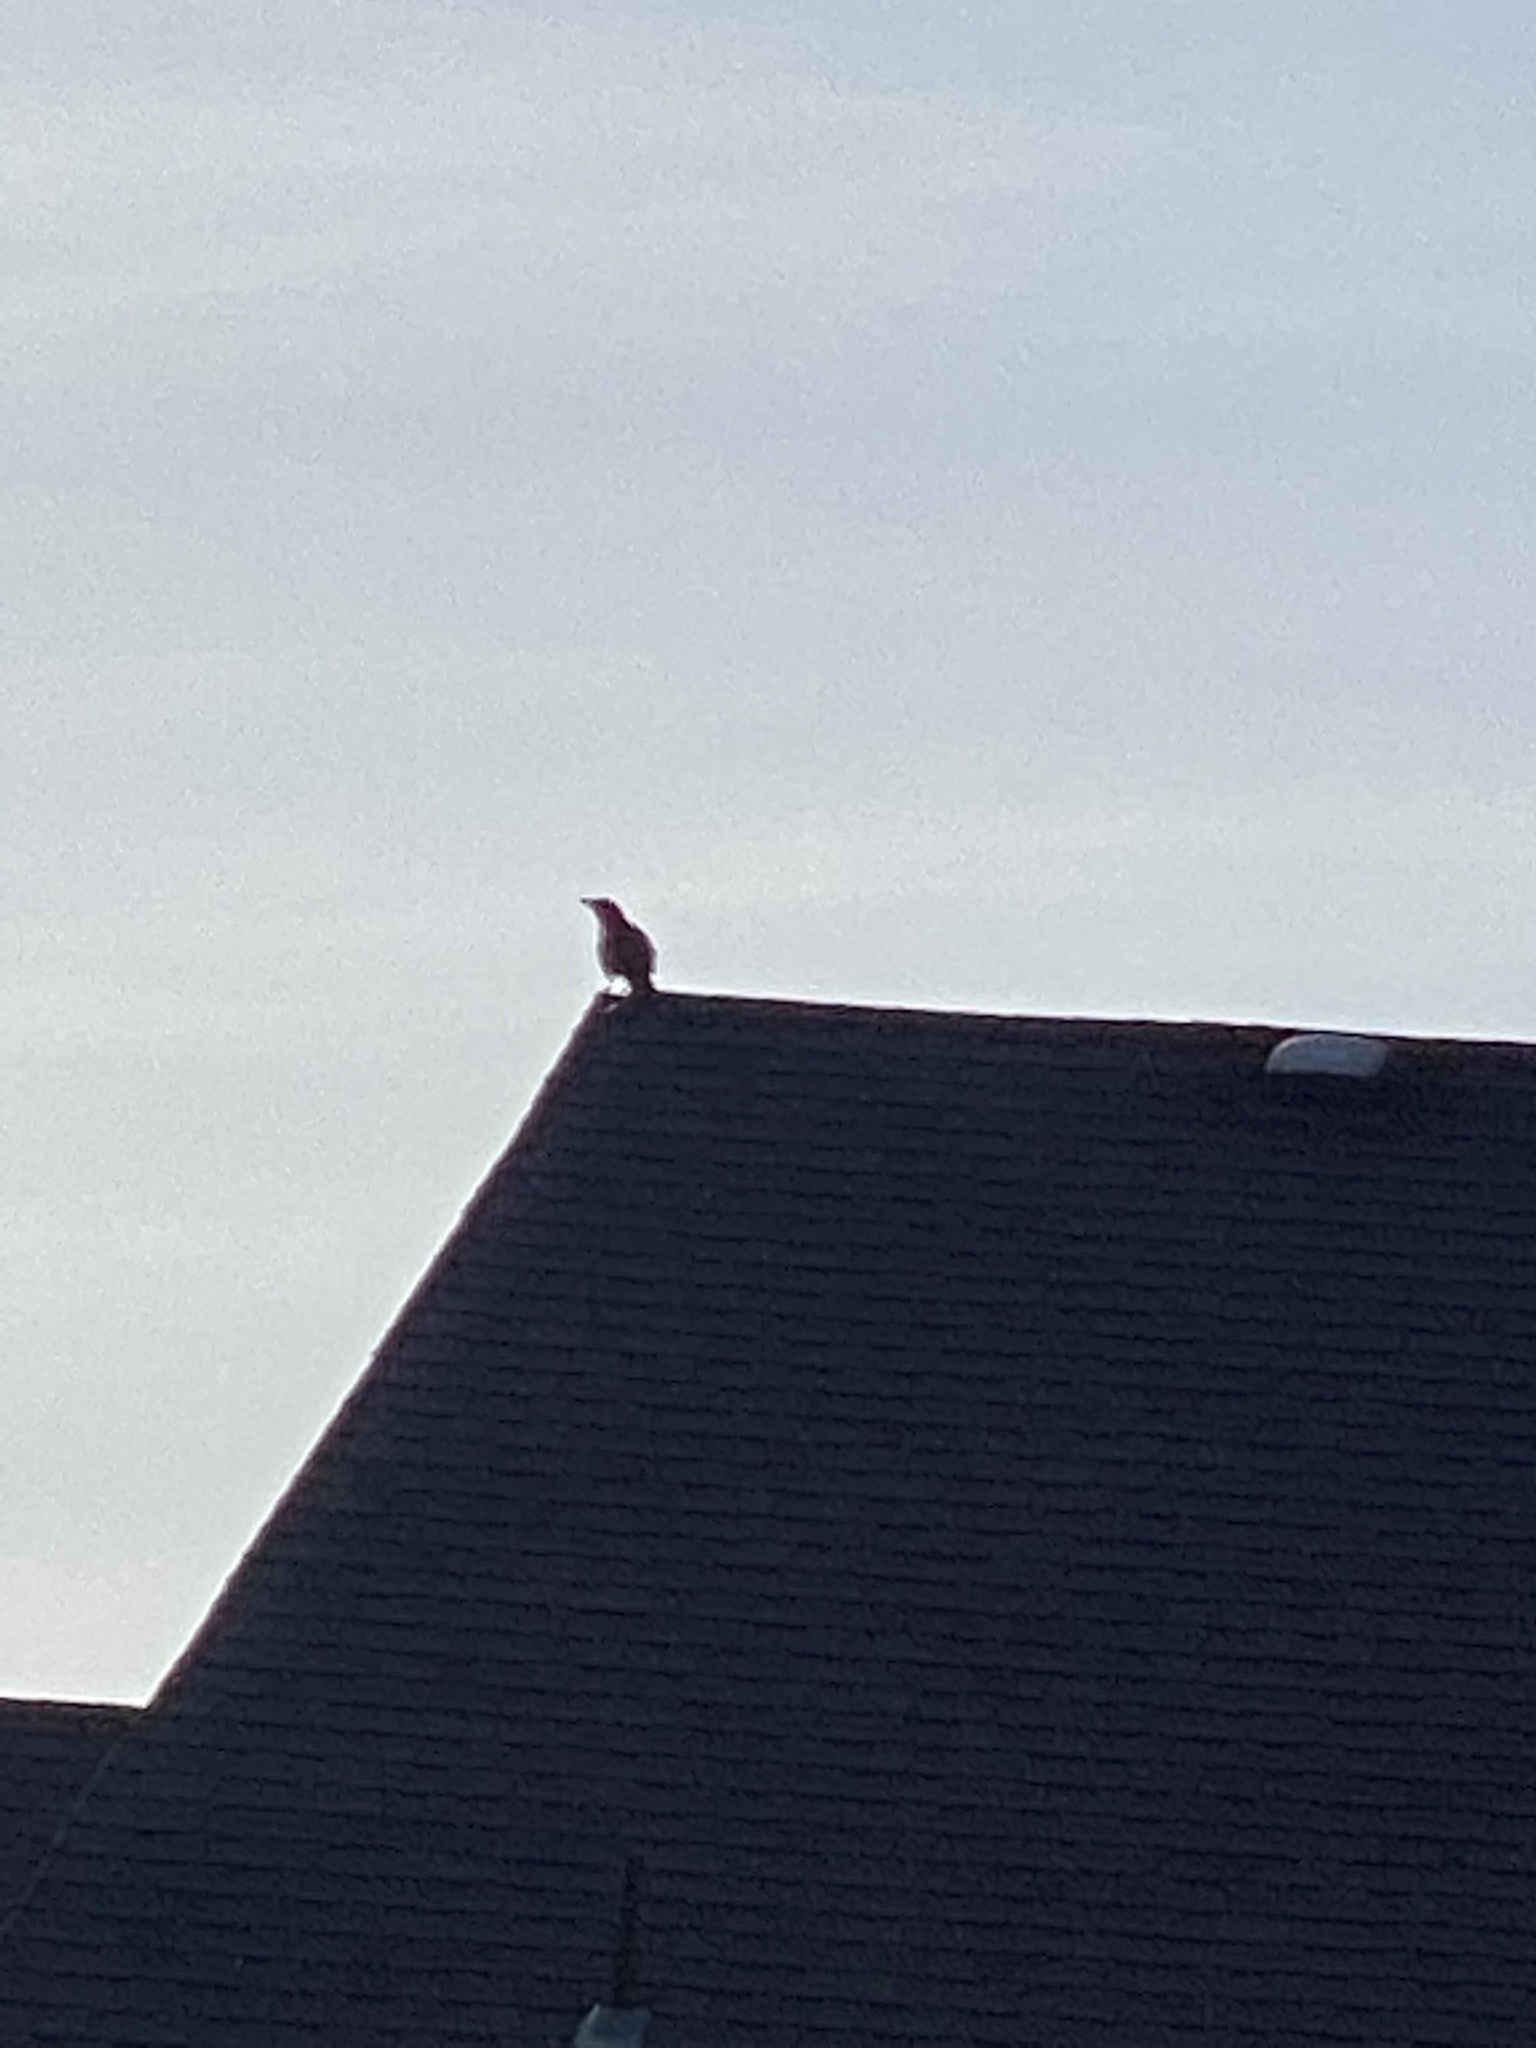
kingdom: Animalia
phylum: Chordata
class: Aves
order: Passeriformes
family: Corvidae
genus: Corvus
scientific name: Corvus brachyrhynchos
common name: American crow
